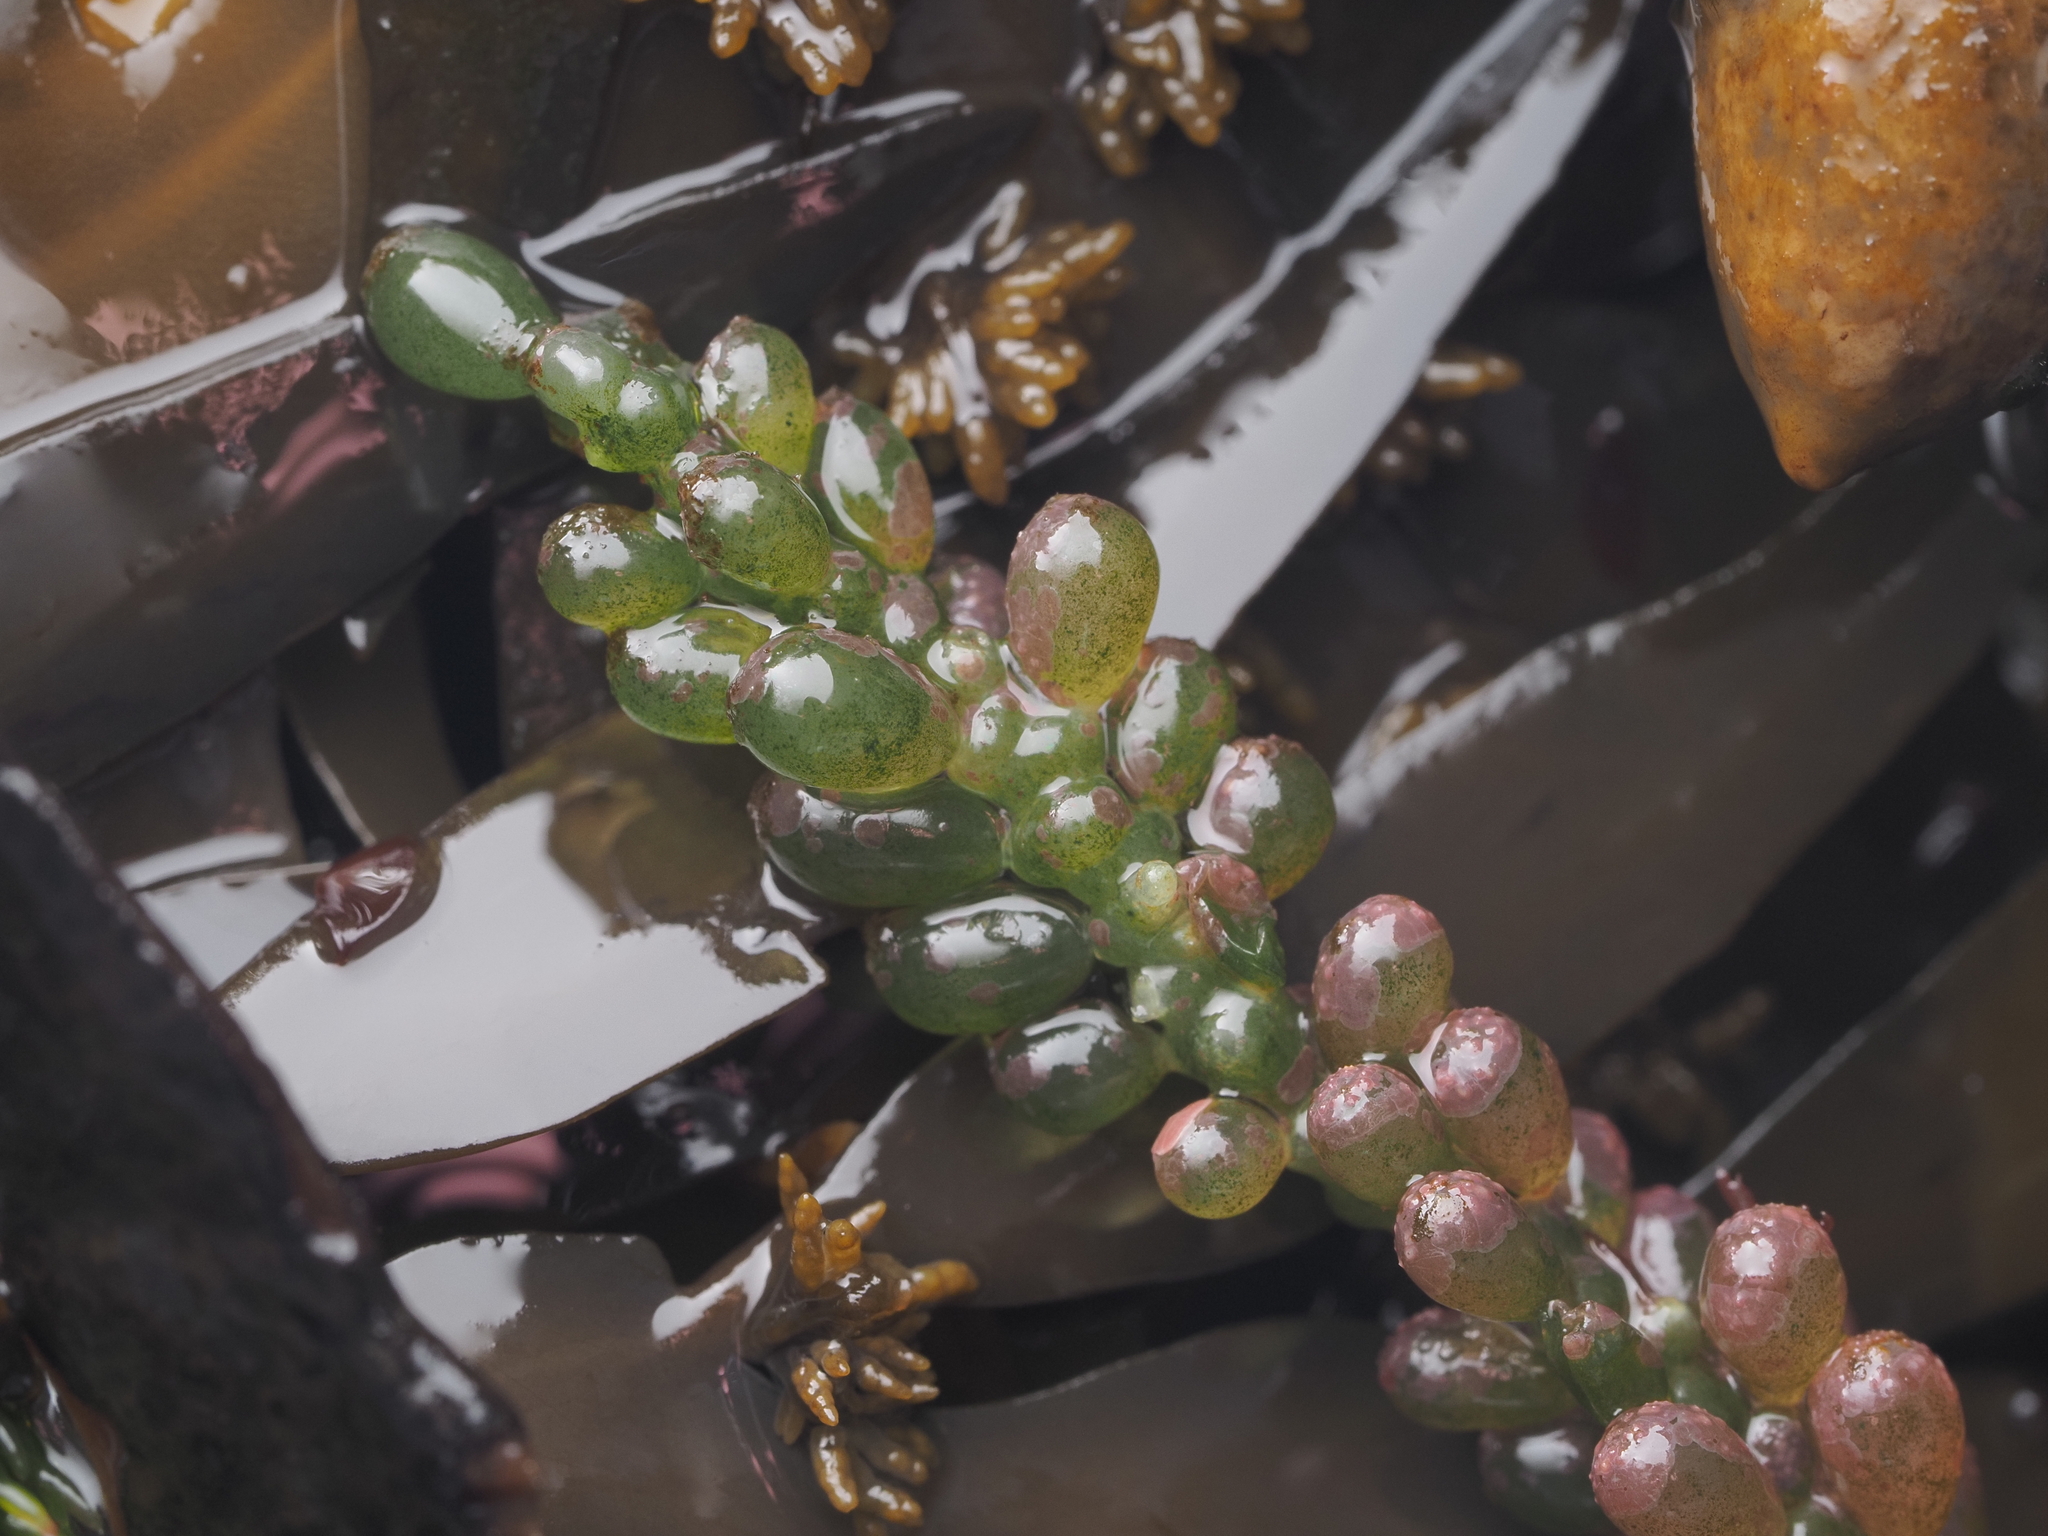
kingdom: Plantae
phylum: Chlorophyta
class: Ulvophyceae
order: Bryopsidales
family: Caulerpaceae
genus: Caulerpa
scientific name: Caulerpa geminata
